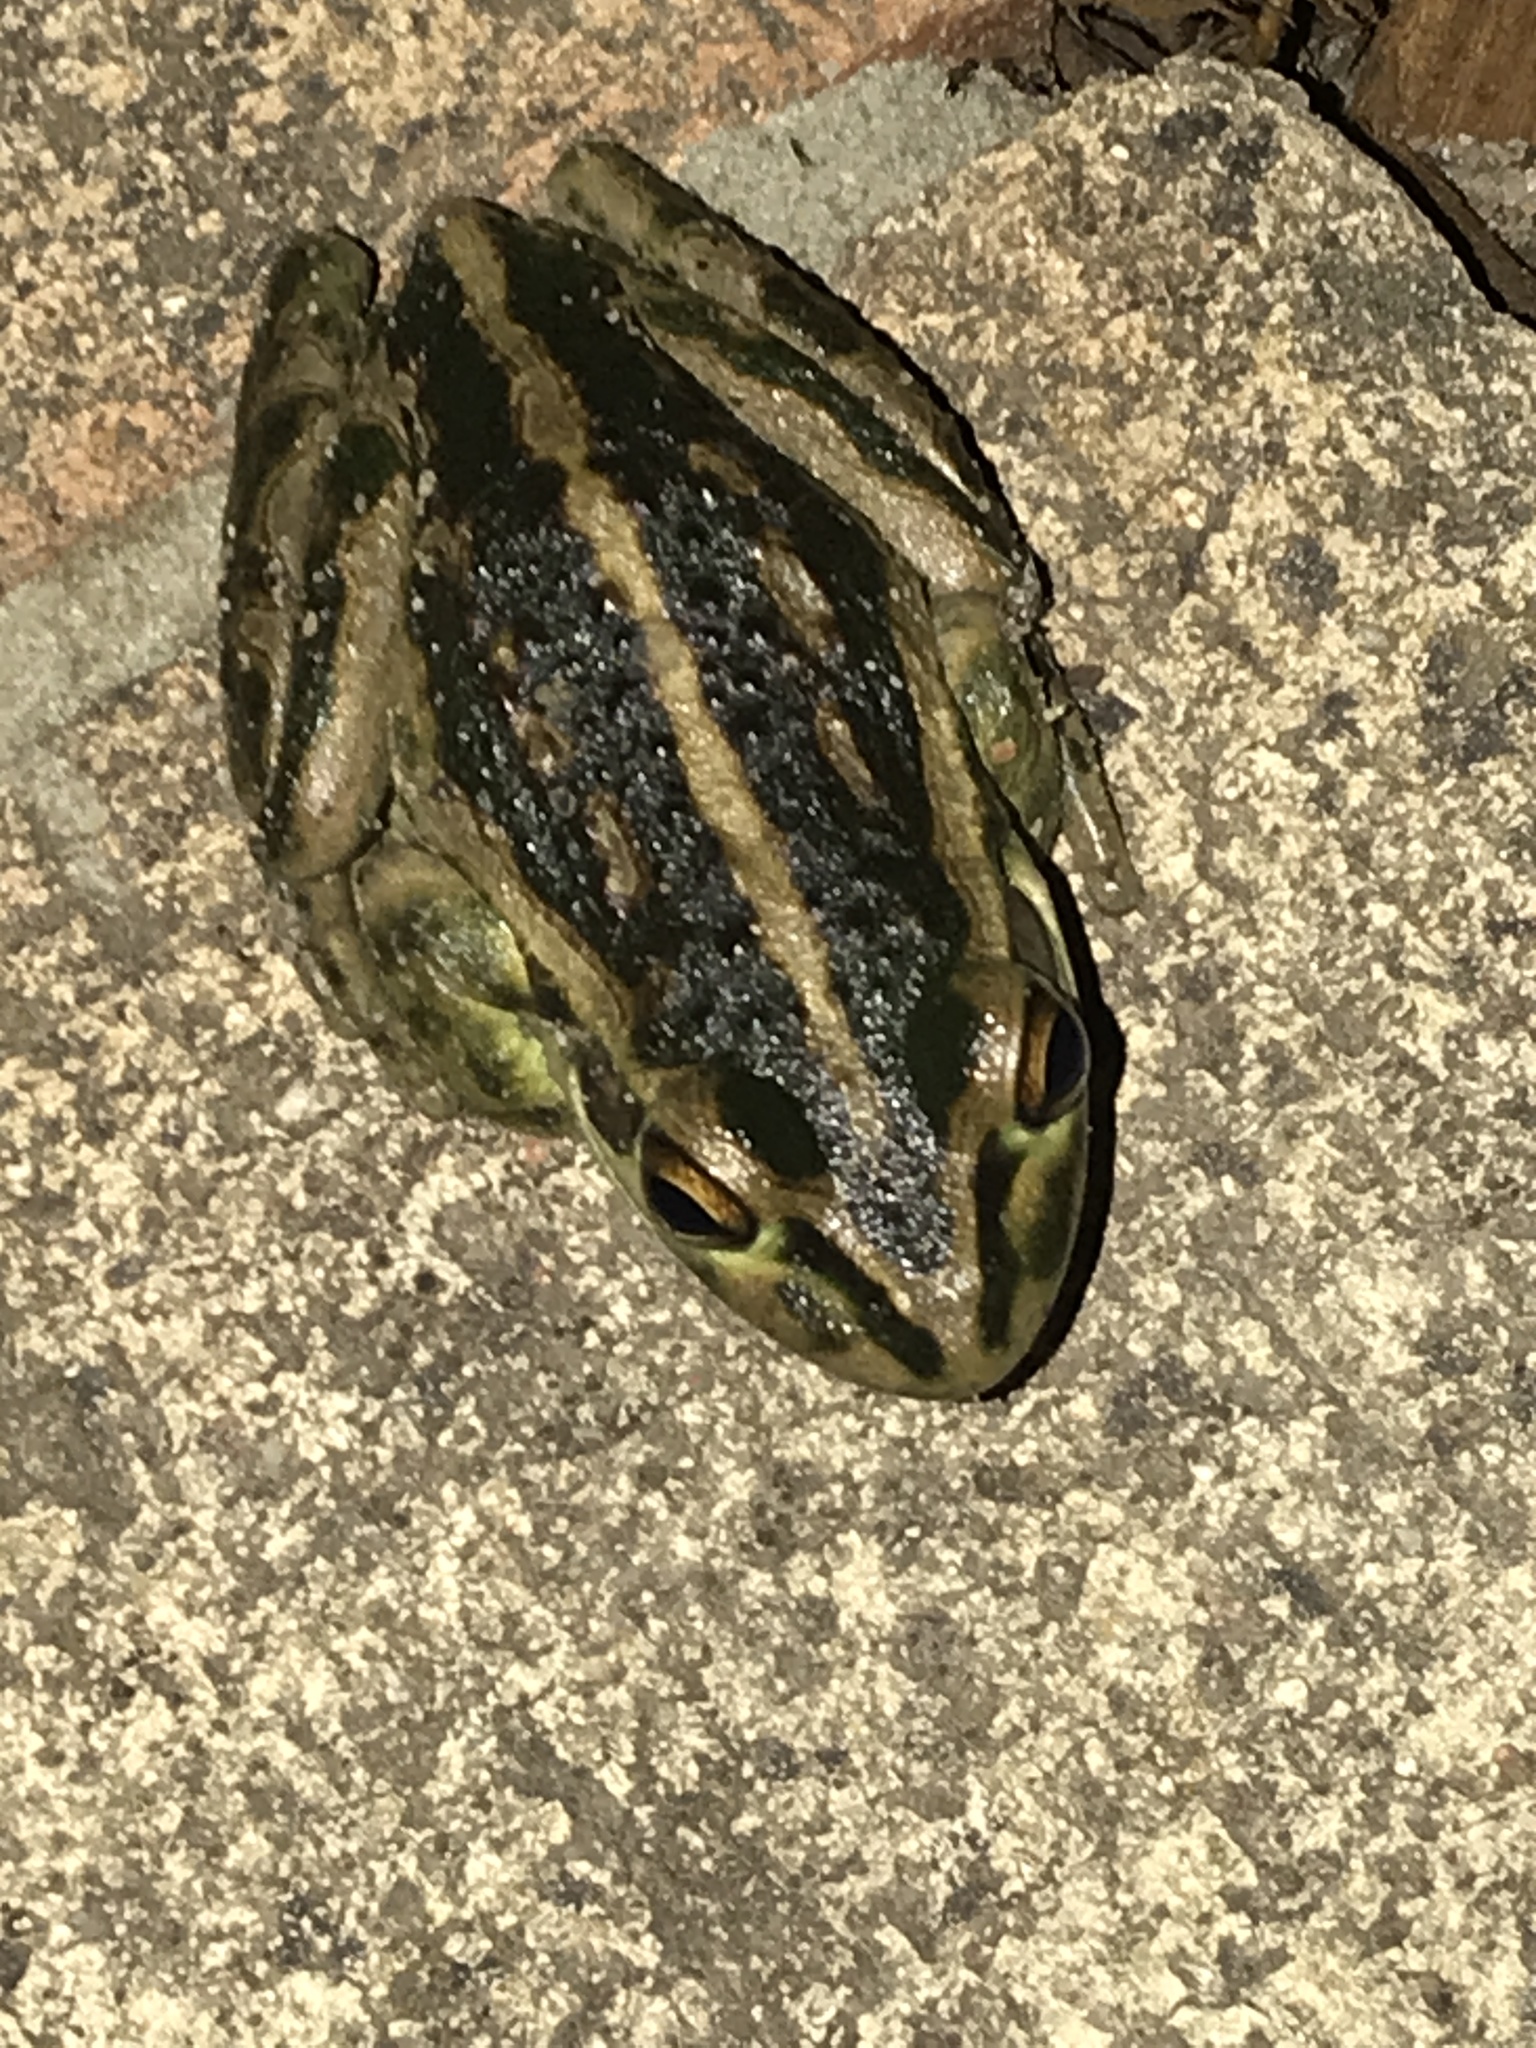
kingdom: Animalia
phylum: Chordata
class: Amphibia
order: Anura
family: Pelodryadidae
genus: Ranoidea
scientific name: Ranoidea moorei
